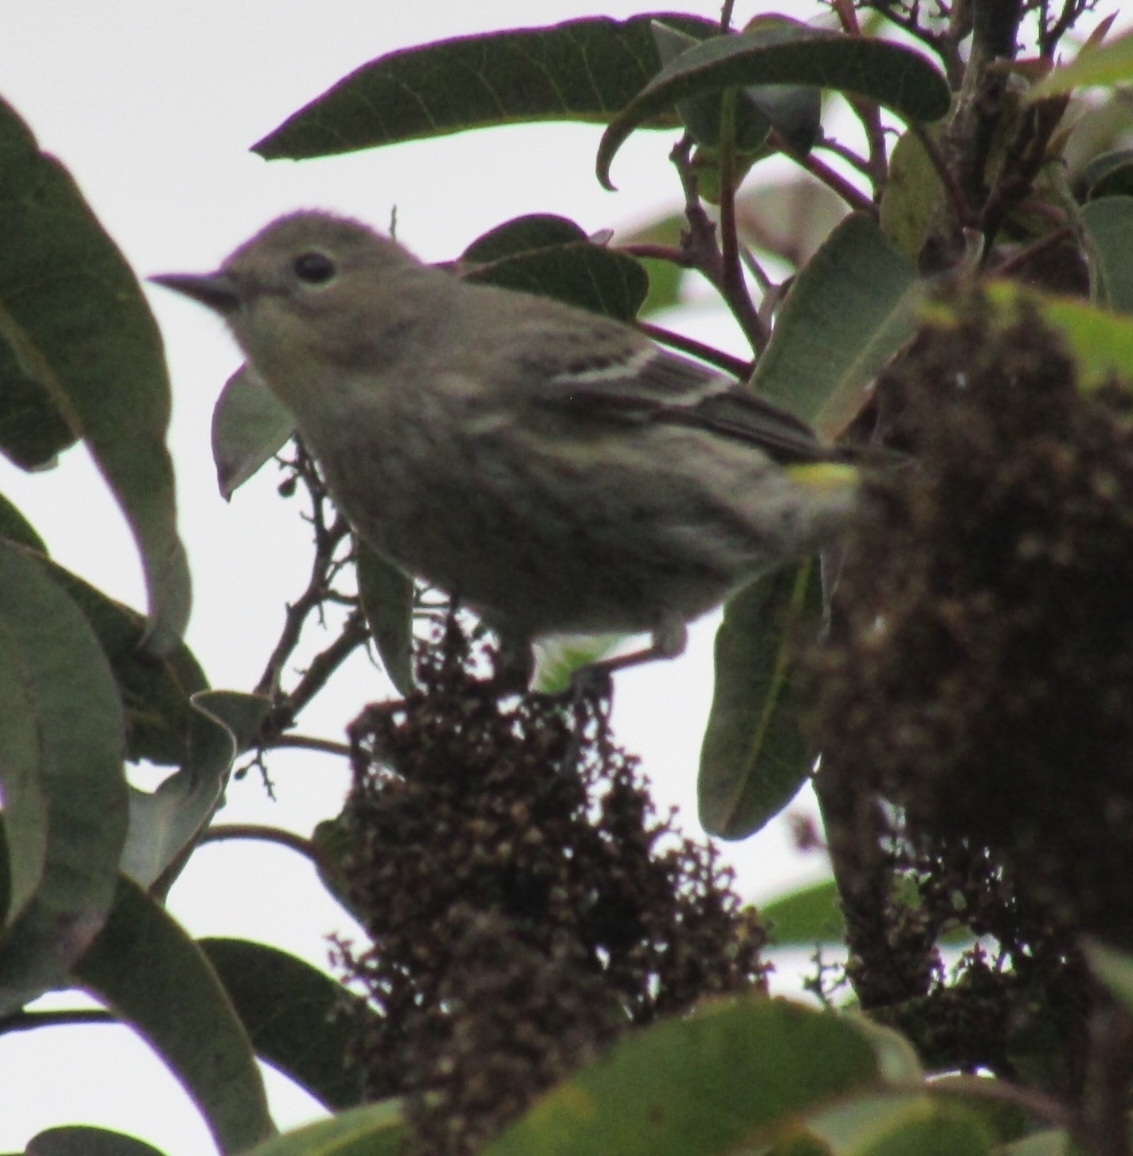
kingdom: Animalia
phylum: Chordata
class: Aves
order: Passeriformes
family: Parulidae
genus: Setophaga
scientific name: Setophaga coronata
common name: Myrtle warbler
